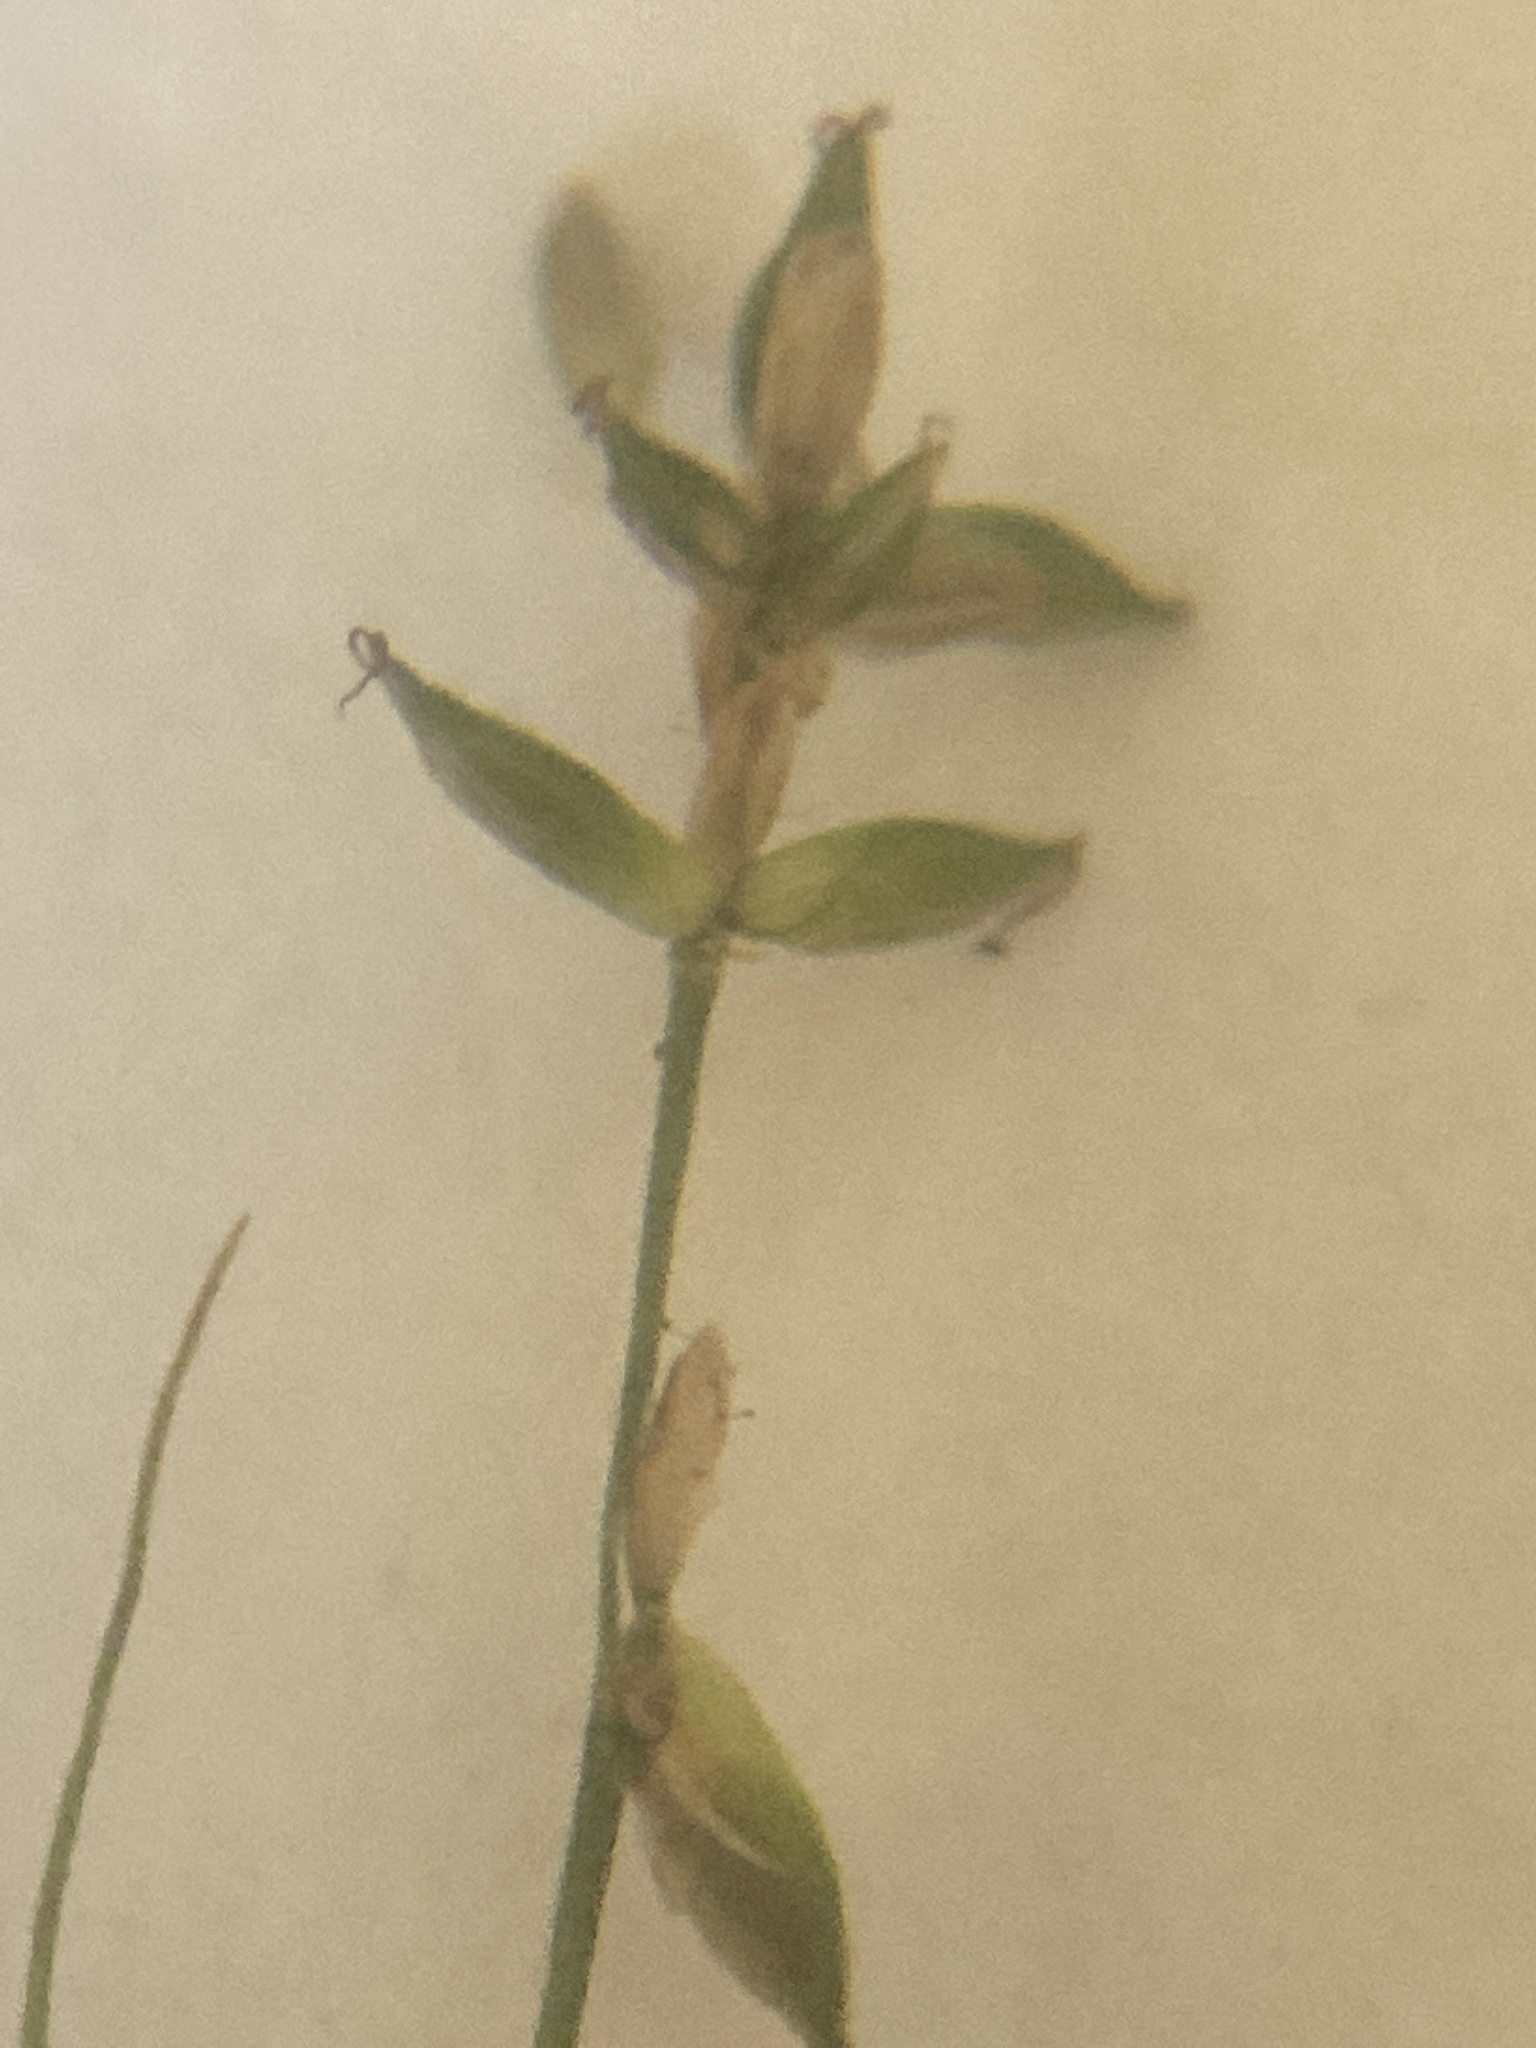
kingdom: Plantae
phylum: Tracheophyta
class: Liliopsida
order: Poales
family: Cyperaceae
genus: Carex
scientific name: Carex rosea
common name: Curly-styled wood sedge
